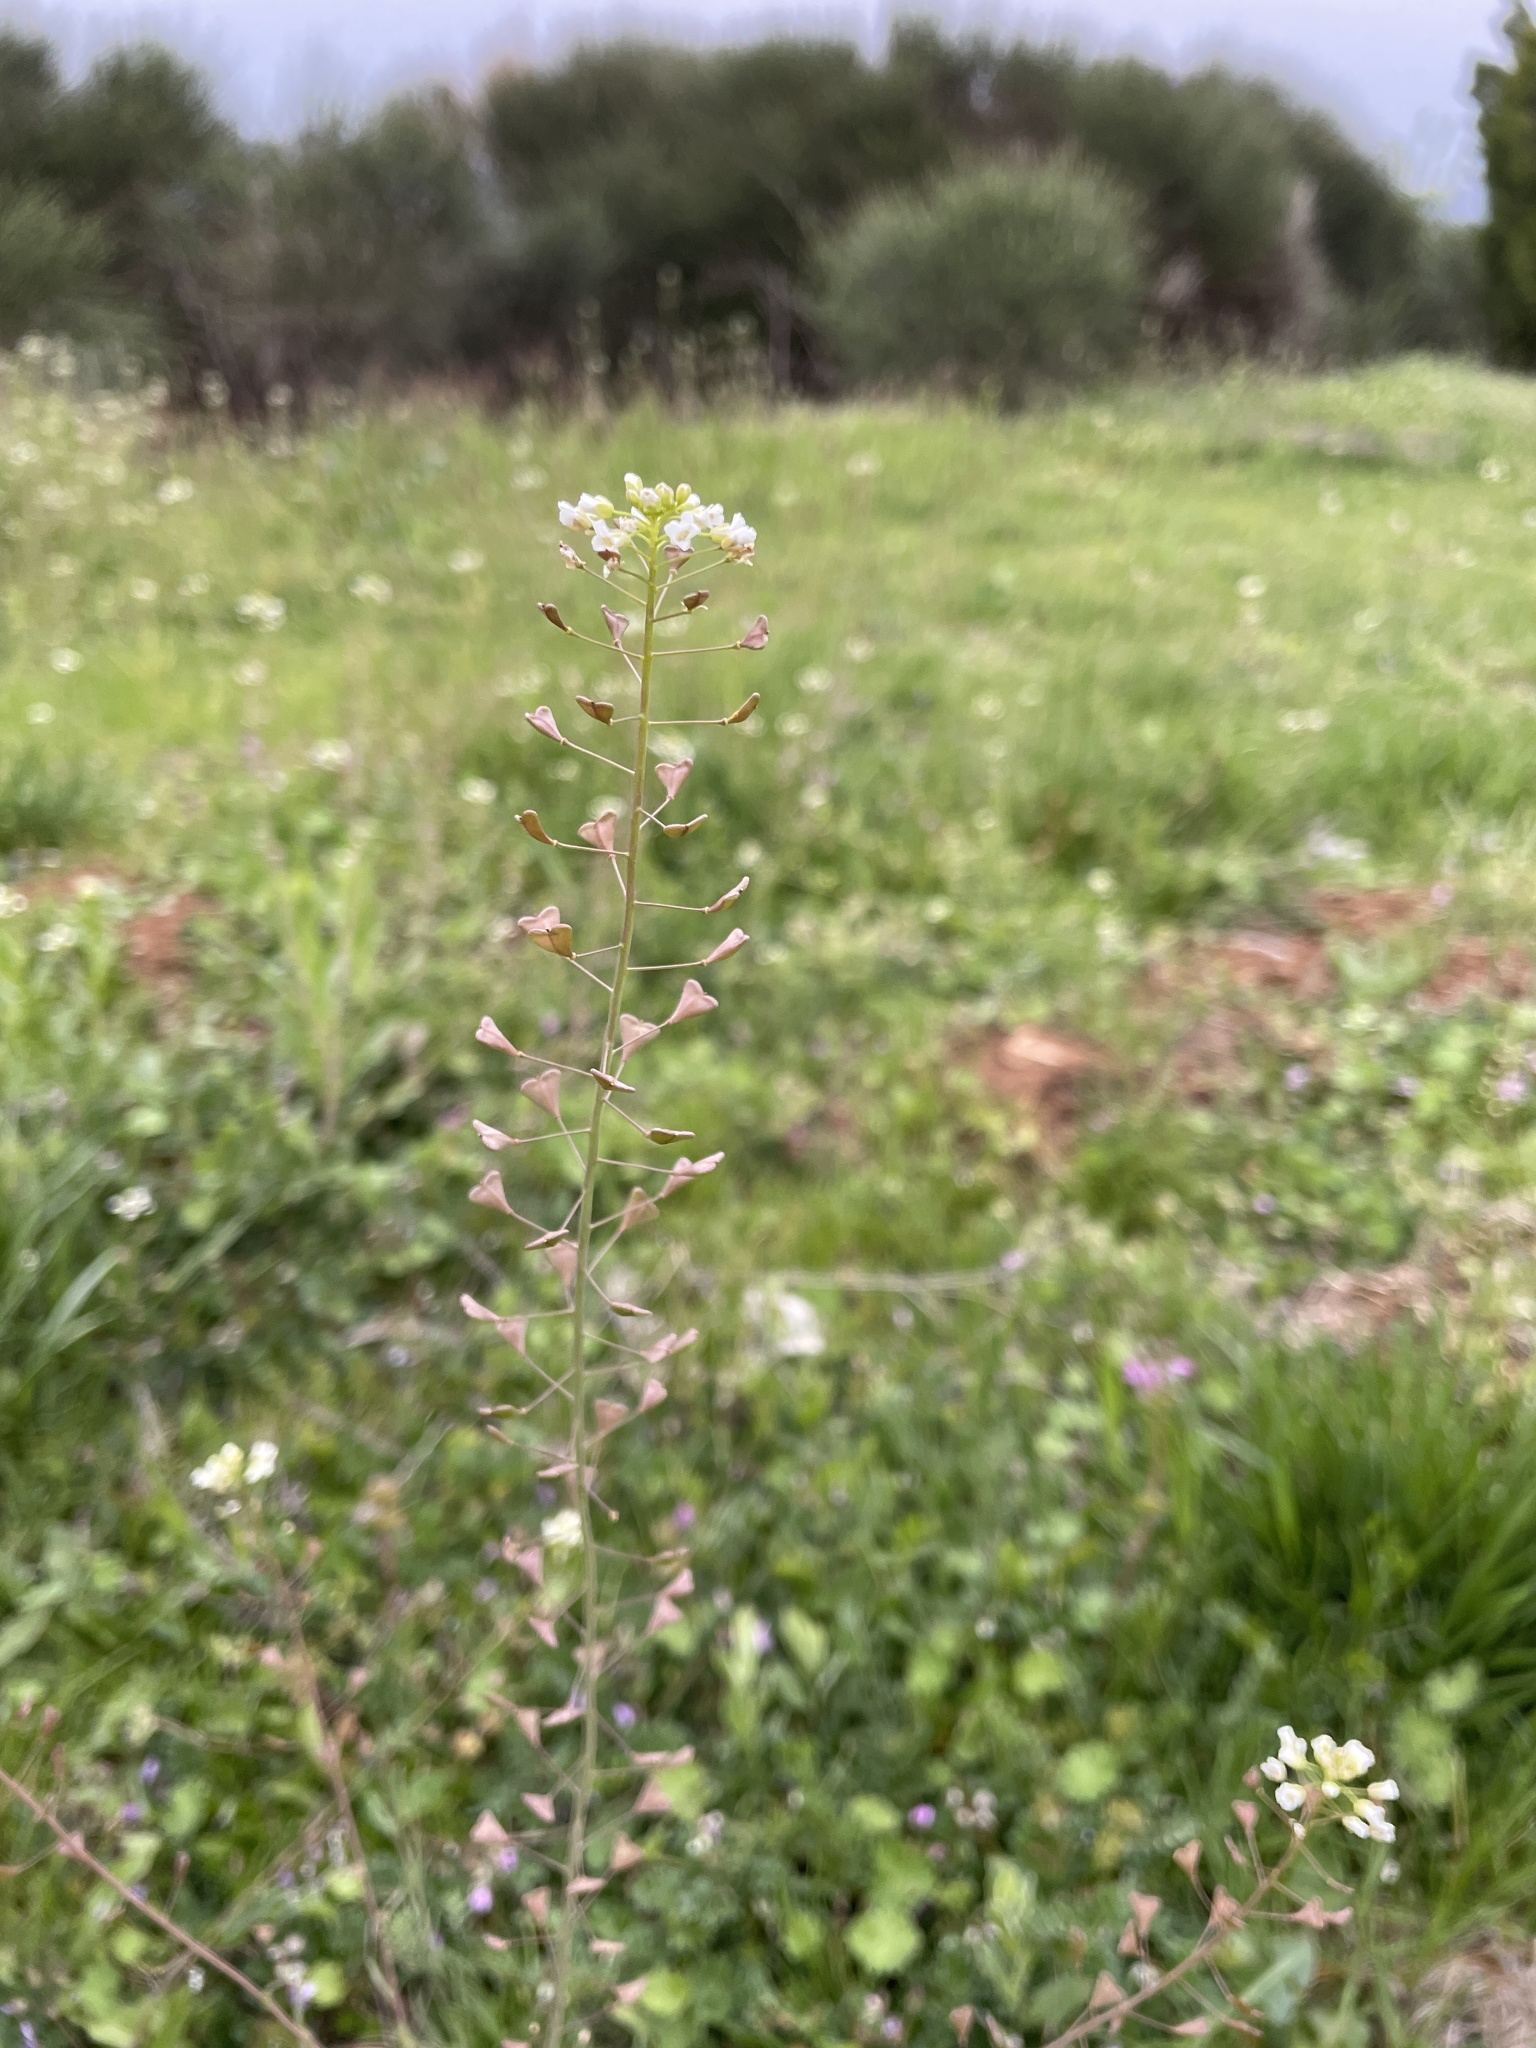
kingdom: Plantae
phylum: Tracheophyta
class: Magnoliopsida
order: Brassicales
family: Brassicaceae
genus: Capsella
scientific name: Capsella bursa-pastoris
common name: Shepherd's purse
